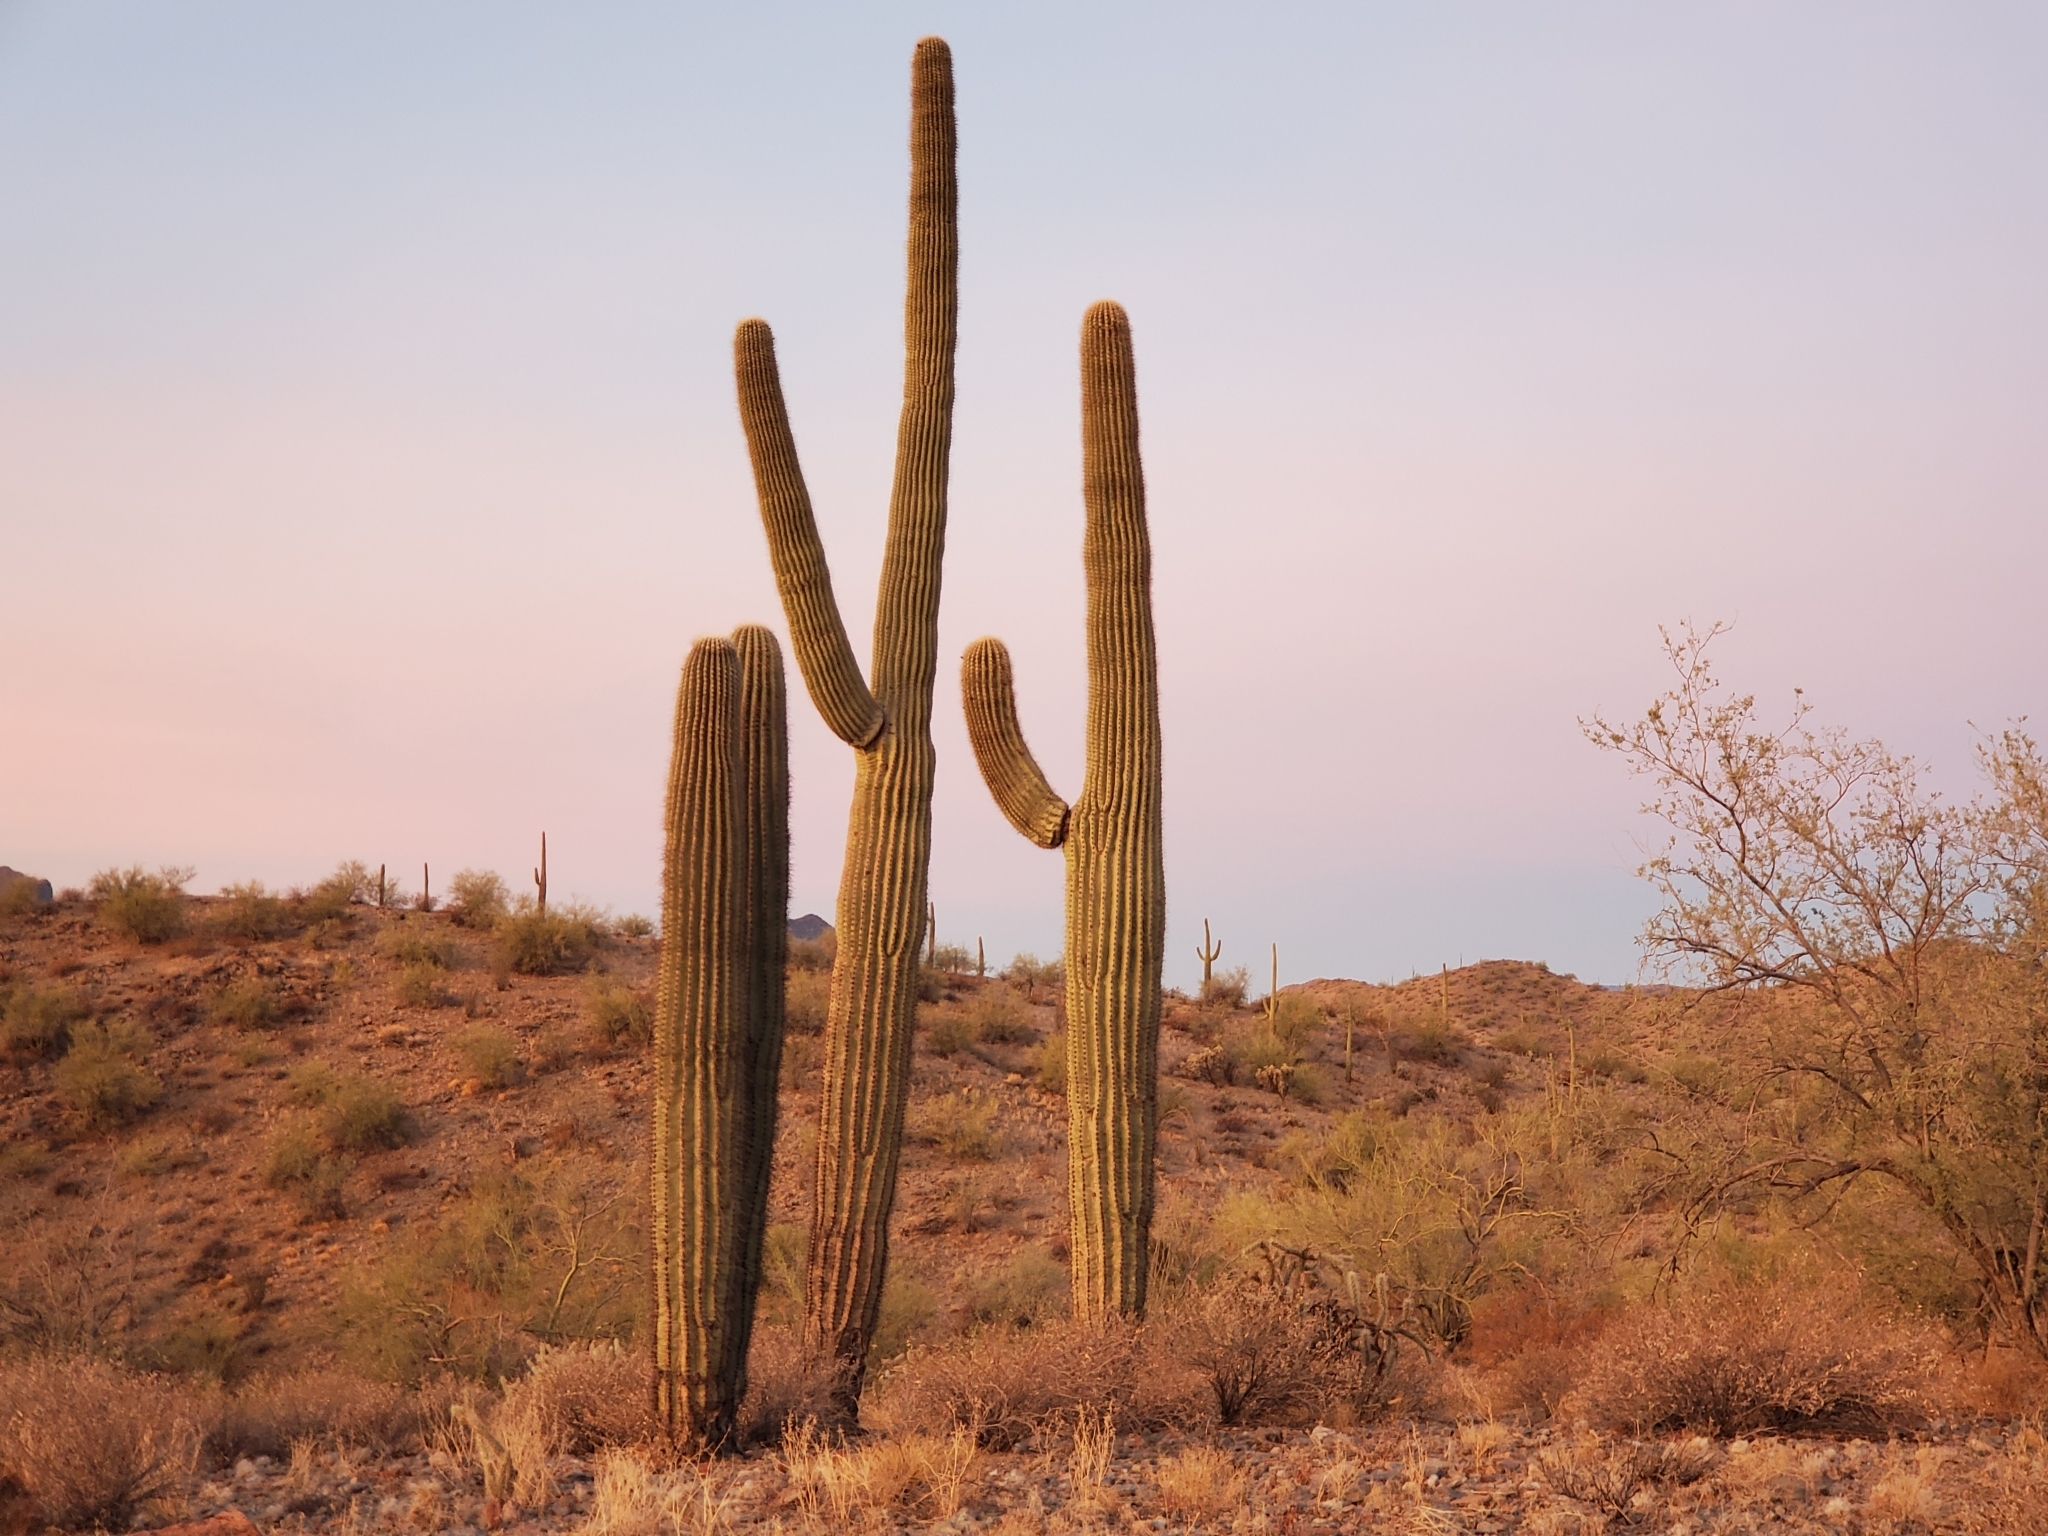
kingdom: Plantae
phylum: Tracheophyta
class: Magnoliopsida
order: Caryophyllales
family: Cactaceae
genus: Carnegiea
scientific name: Carnegiea gigantea
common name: Saguaro
